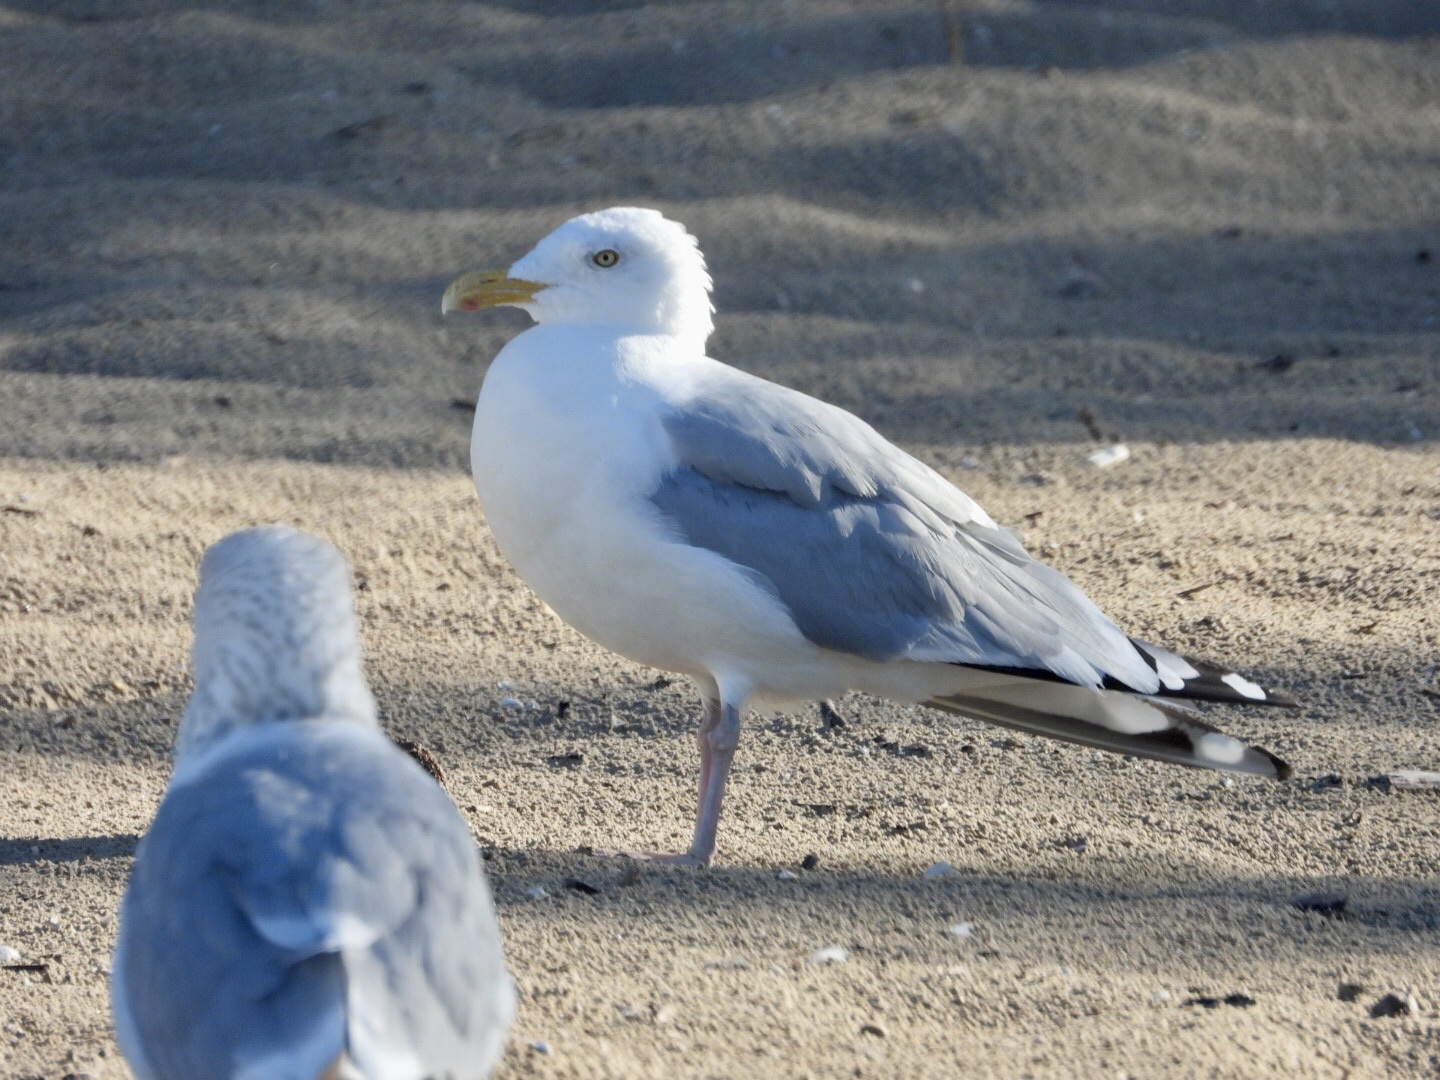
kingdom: Animalia
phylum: Chordata
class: Aves
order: Charadriiformes
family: Laridae
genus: Larus
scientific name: Larus argentatus
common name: Herring gull
